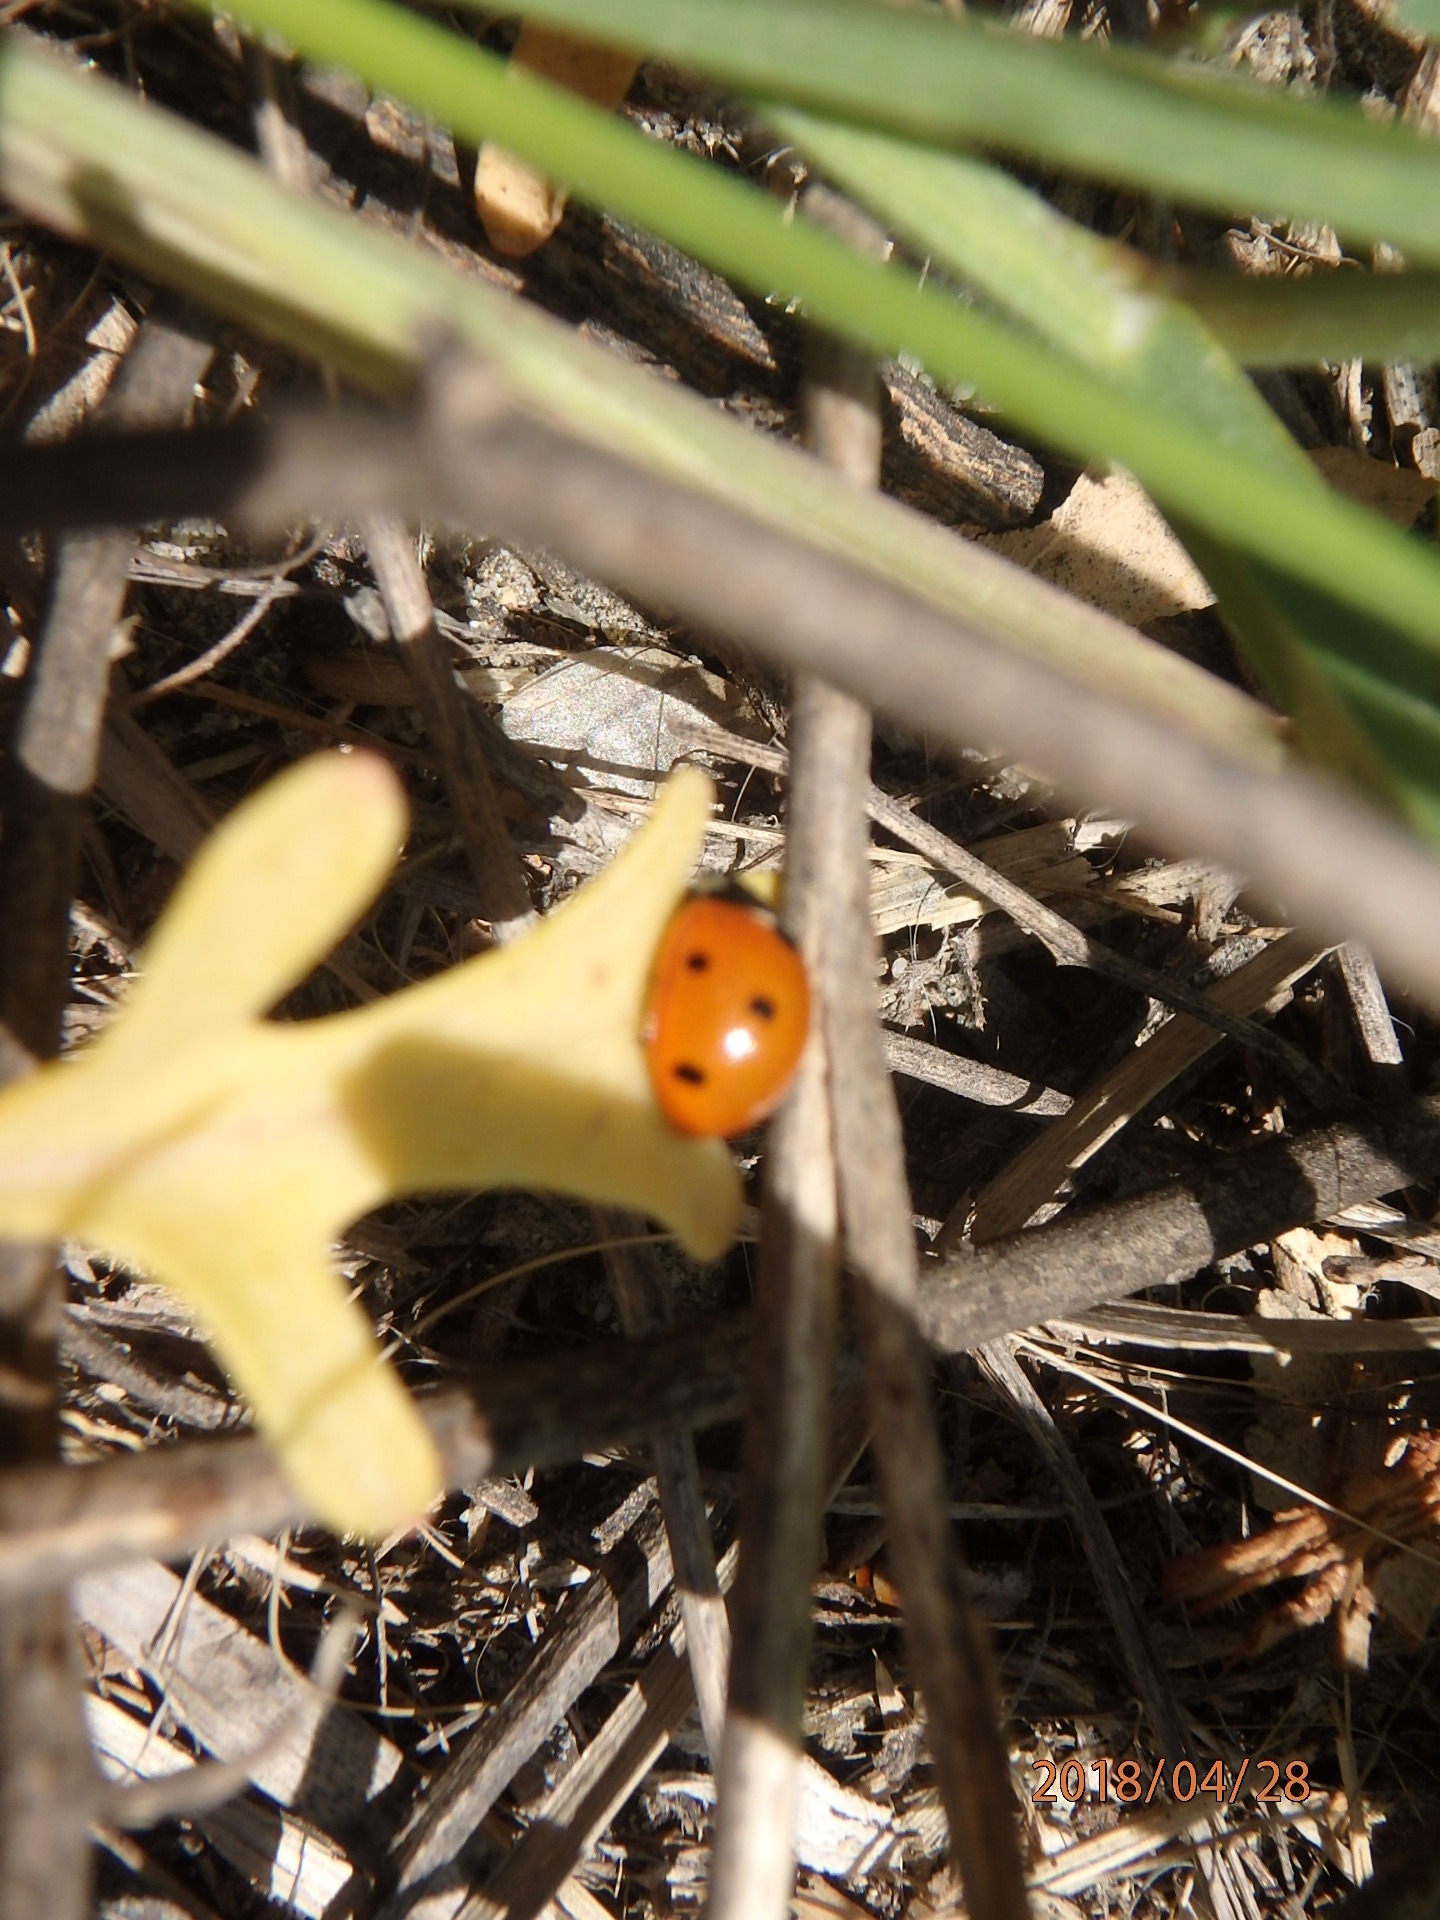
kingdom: Animalia
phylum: Arthropoda
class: Insecta
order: Coleoptera
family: Coccinellidae
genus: Coccinella
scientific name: Coccinella septempunctata
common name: Sevenspotted lady beetle
